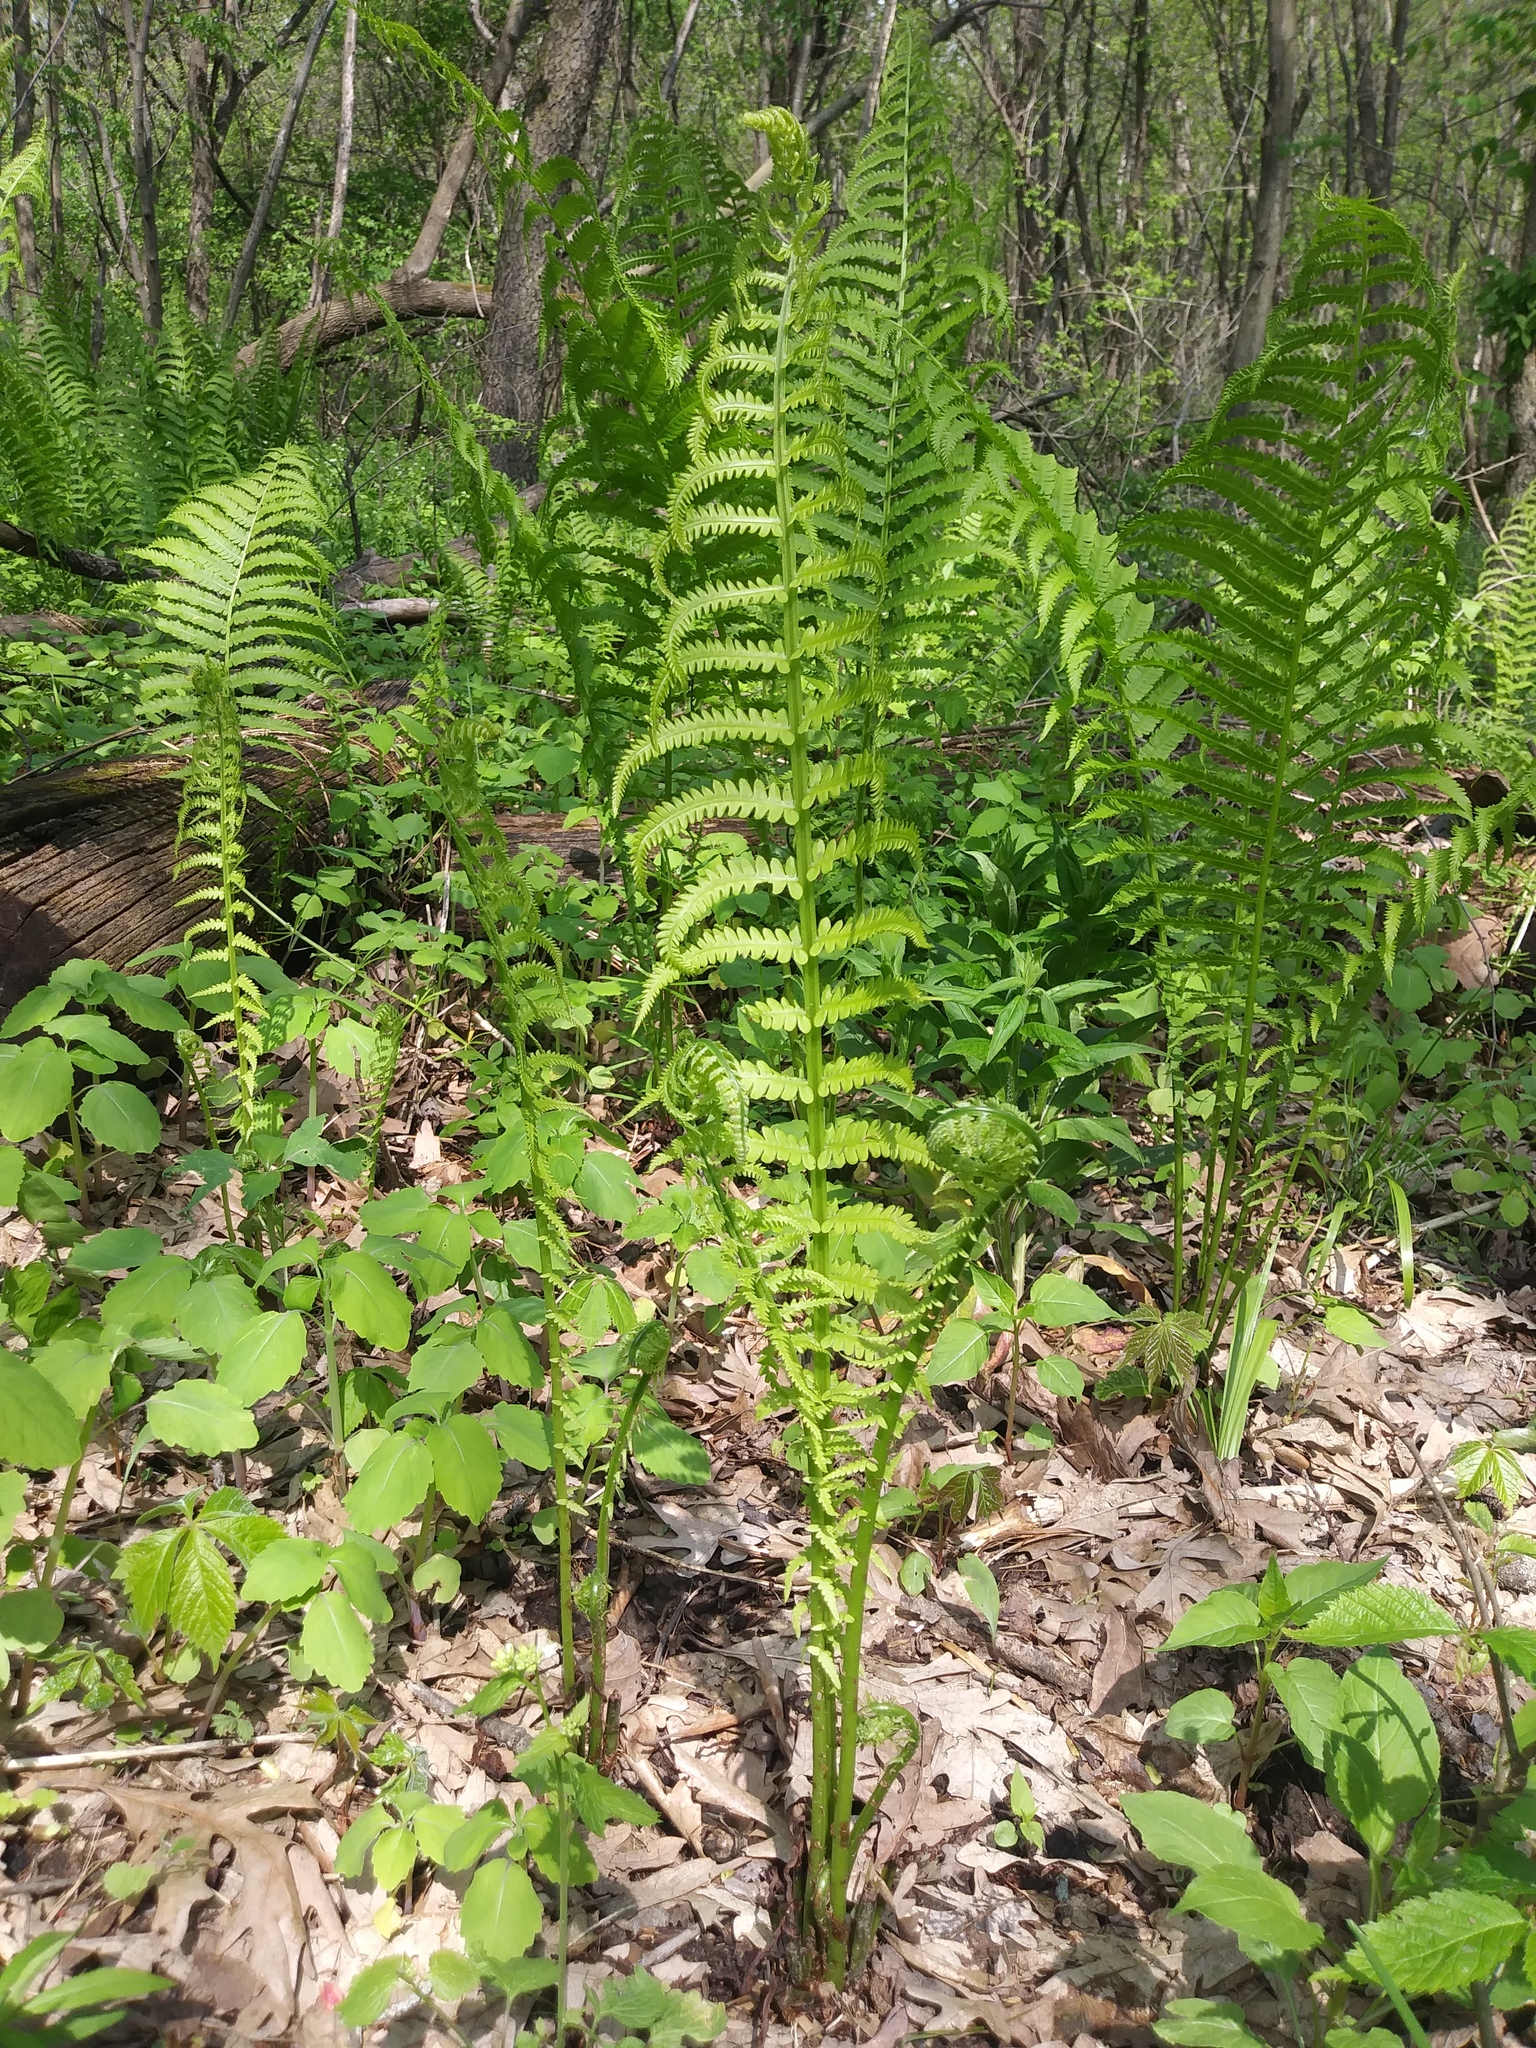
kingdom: Plantae
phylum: Tracheophyta
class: Polypodiopsida
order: Polypodiales
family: Onocleaceae
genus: Matteuccia
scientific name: Matteuccia struthiopteris
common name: Ostrich fern
